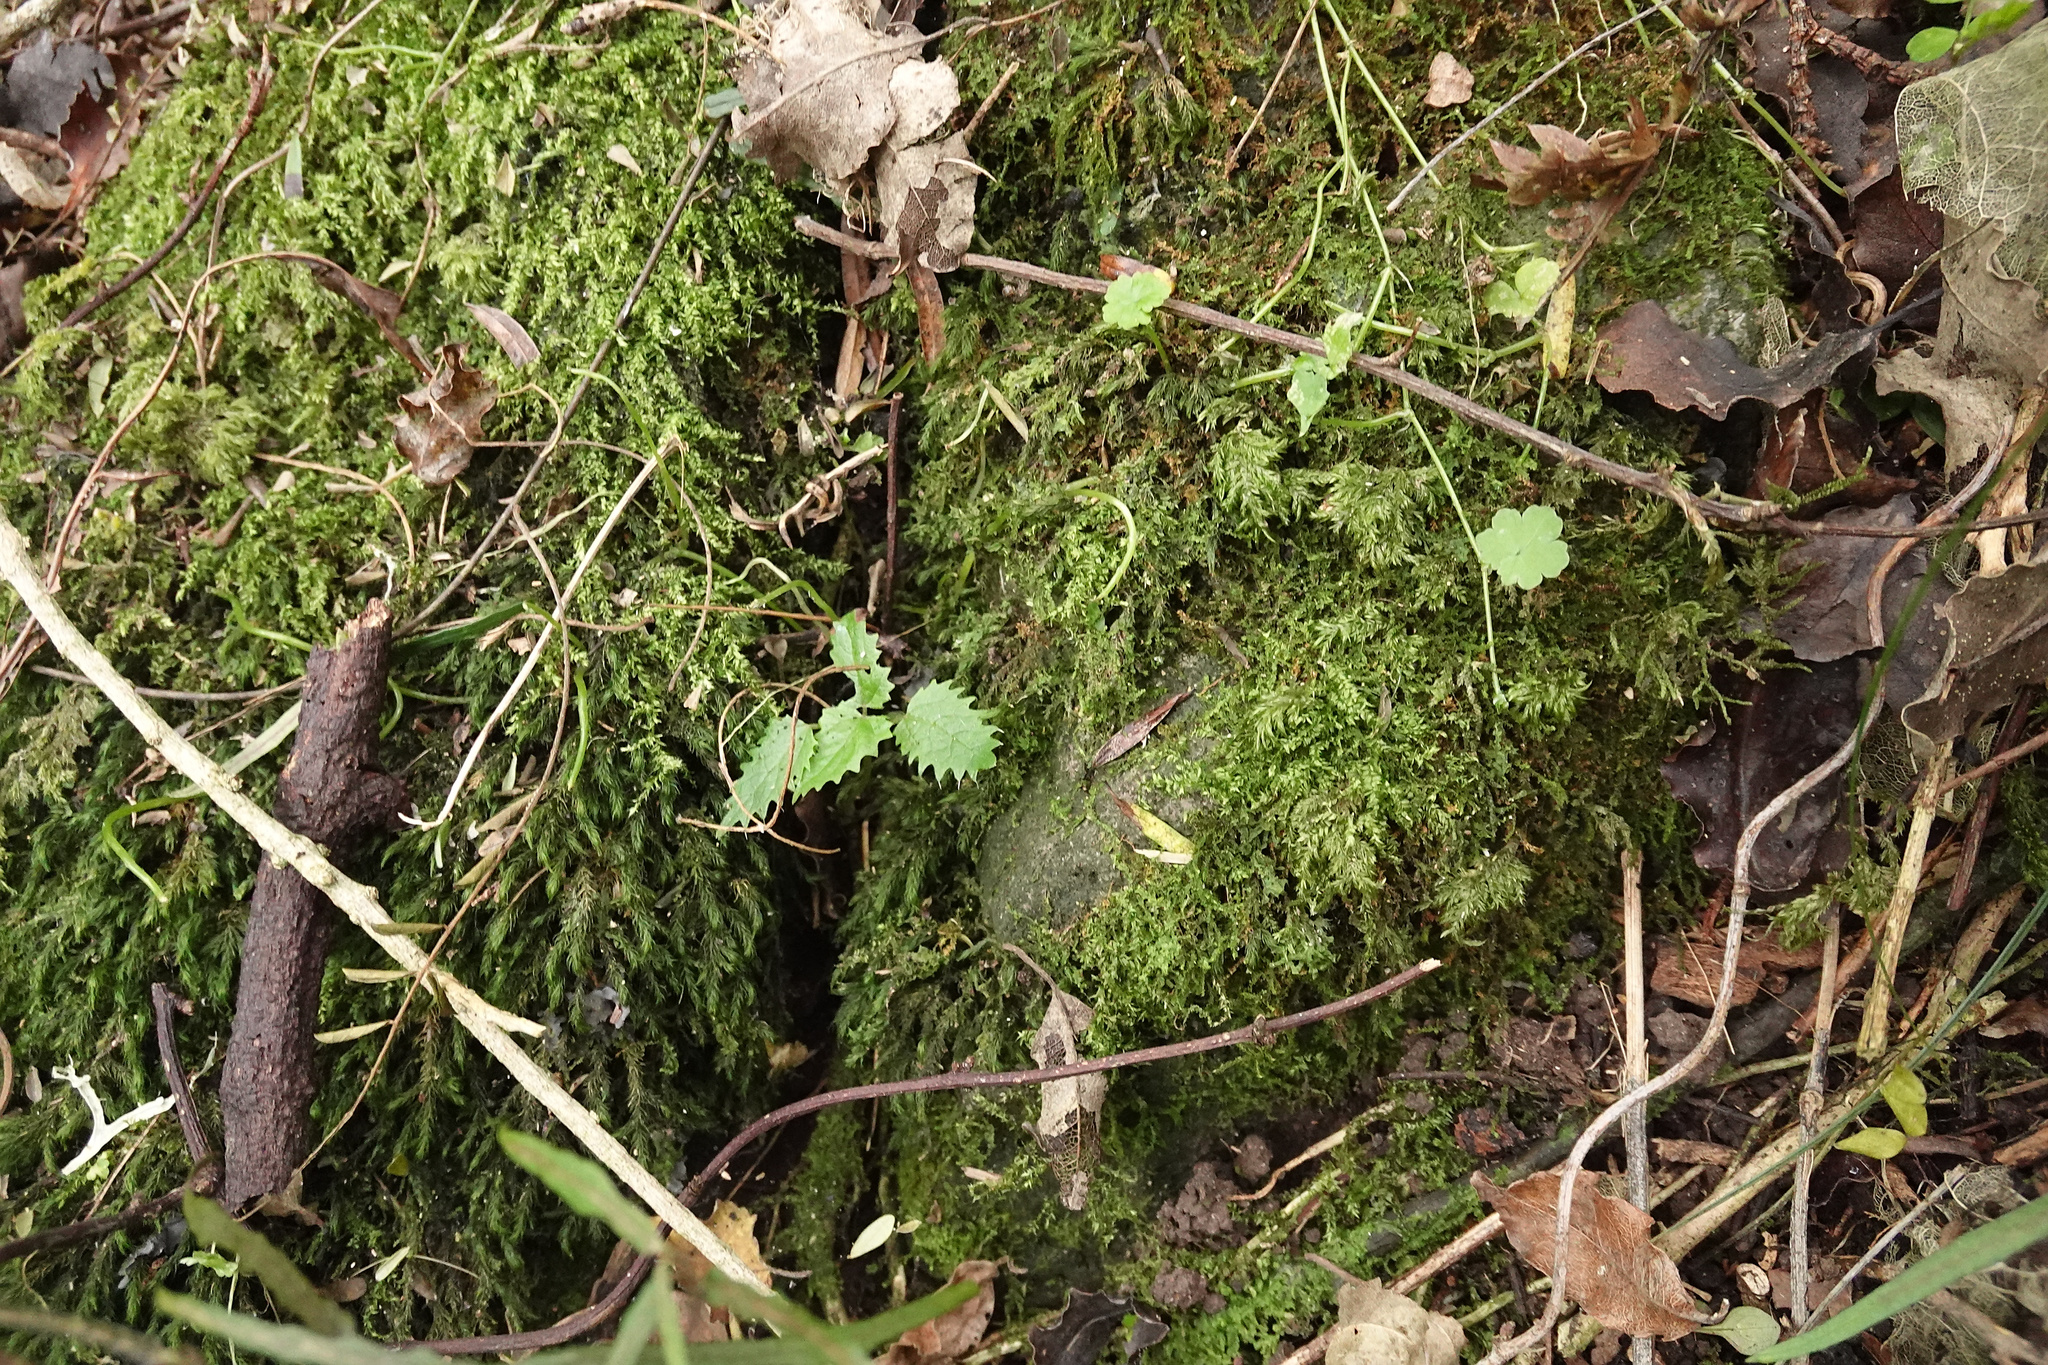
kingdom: Plantae
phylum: Tracheophyta
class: Magnoliopsida
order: Rosales
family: Urticaceae
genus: Urtica
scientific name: Urtica ferox
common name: Tree nettle
